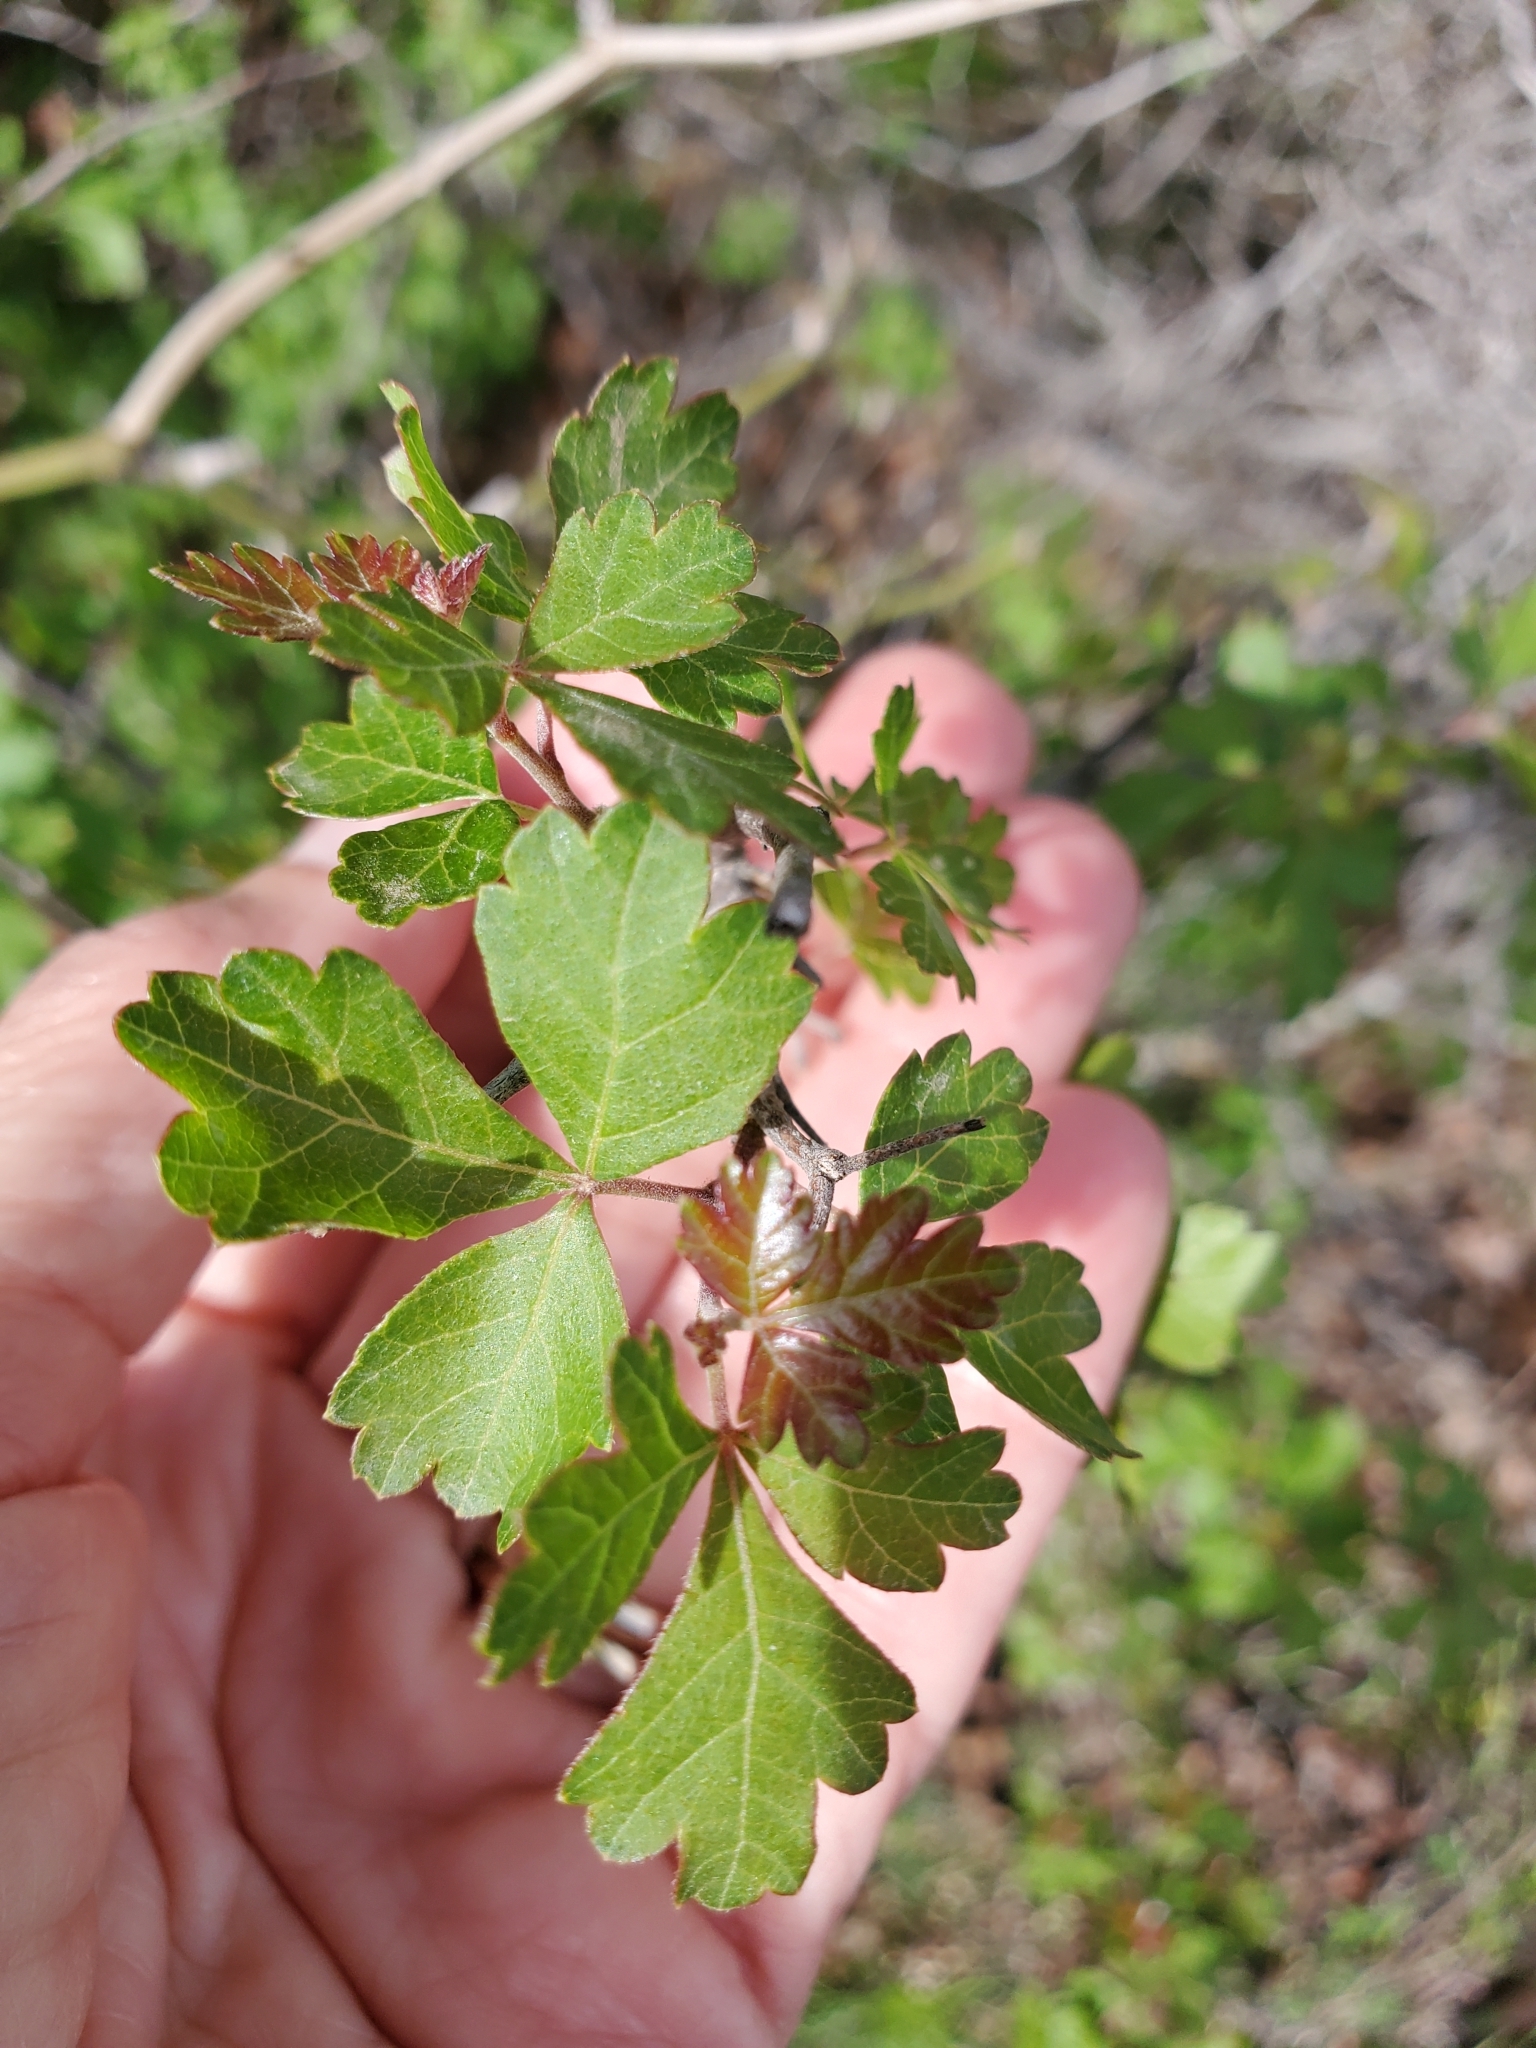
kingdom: Plantae
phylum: Tracheophyta
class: Magnoliopsida
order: Sapindales
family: Anacardiaceae
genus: Rhus
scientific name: Rhus trilobata
